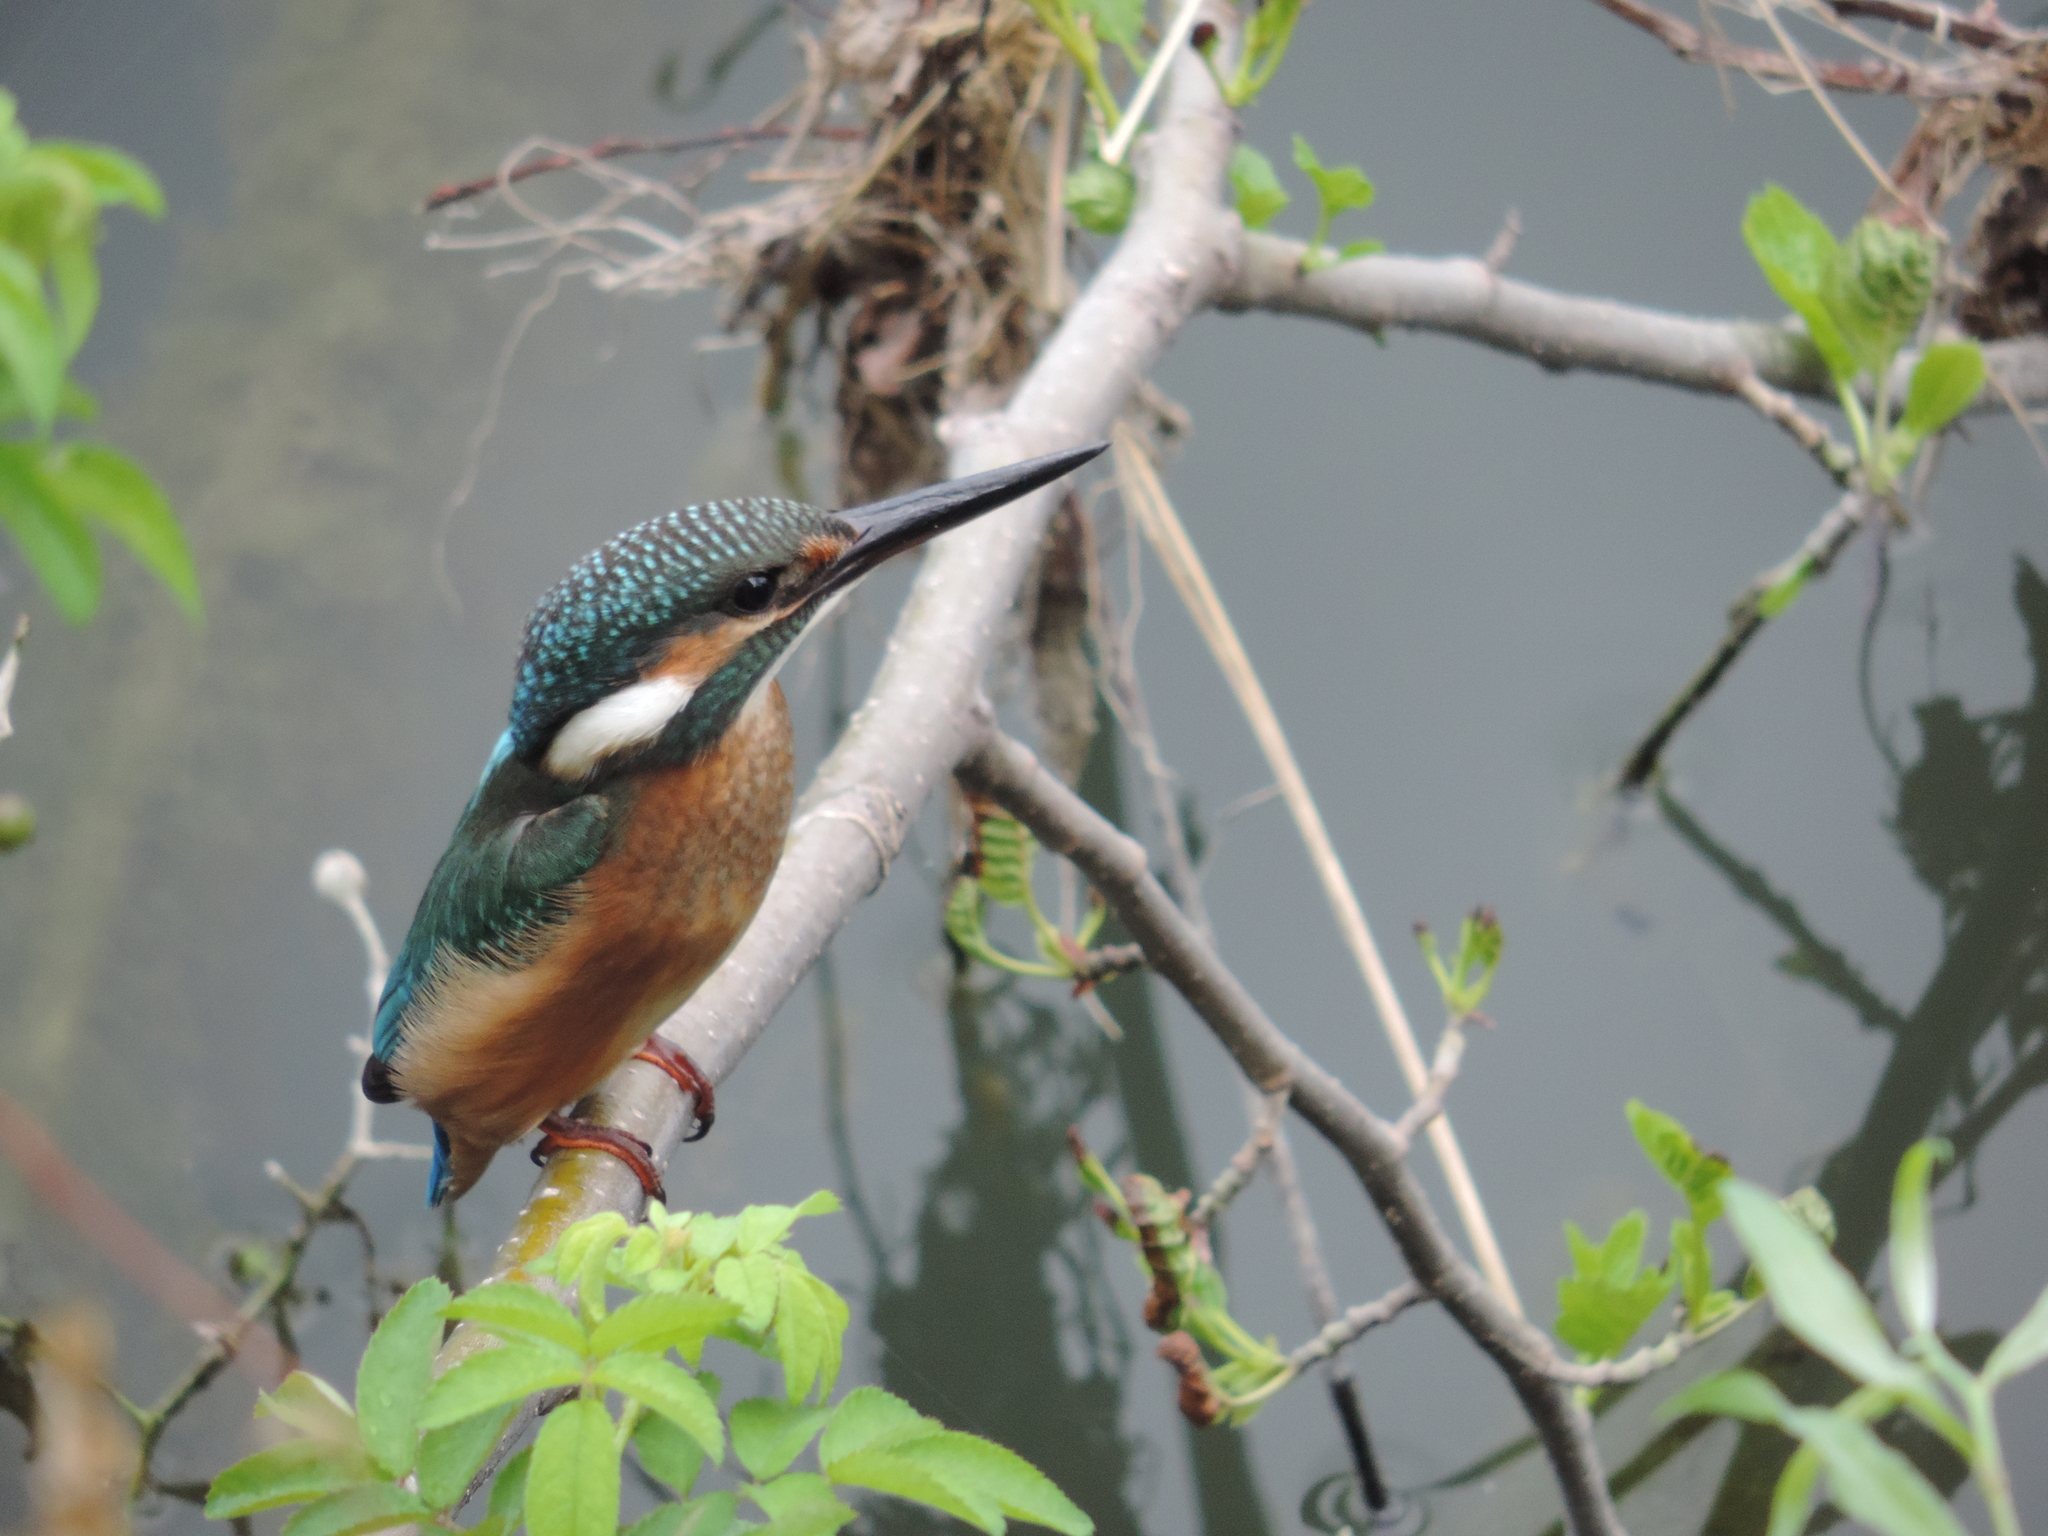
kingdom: Animalia
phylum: Chordata
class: Aves
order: Coraciiformes
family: Alcedinidae
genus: Alcedo
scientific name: Alcedo atthis
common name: Common kingfisher
